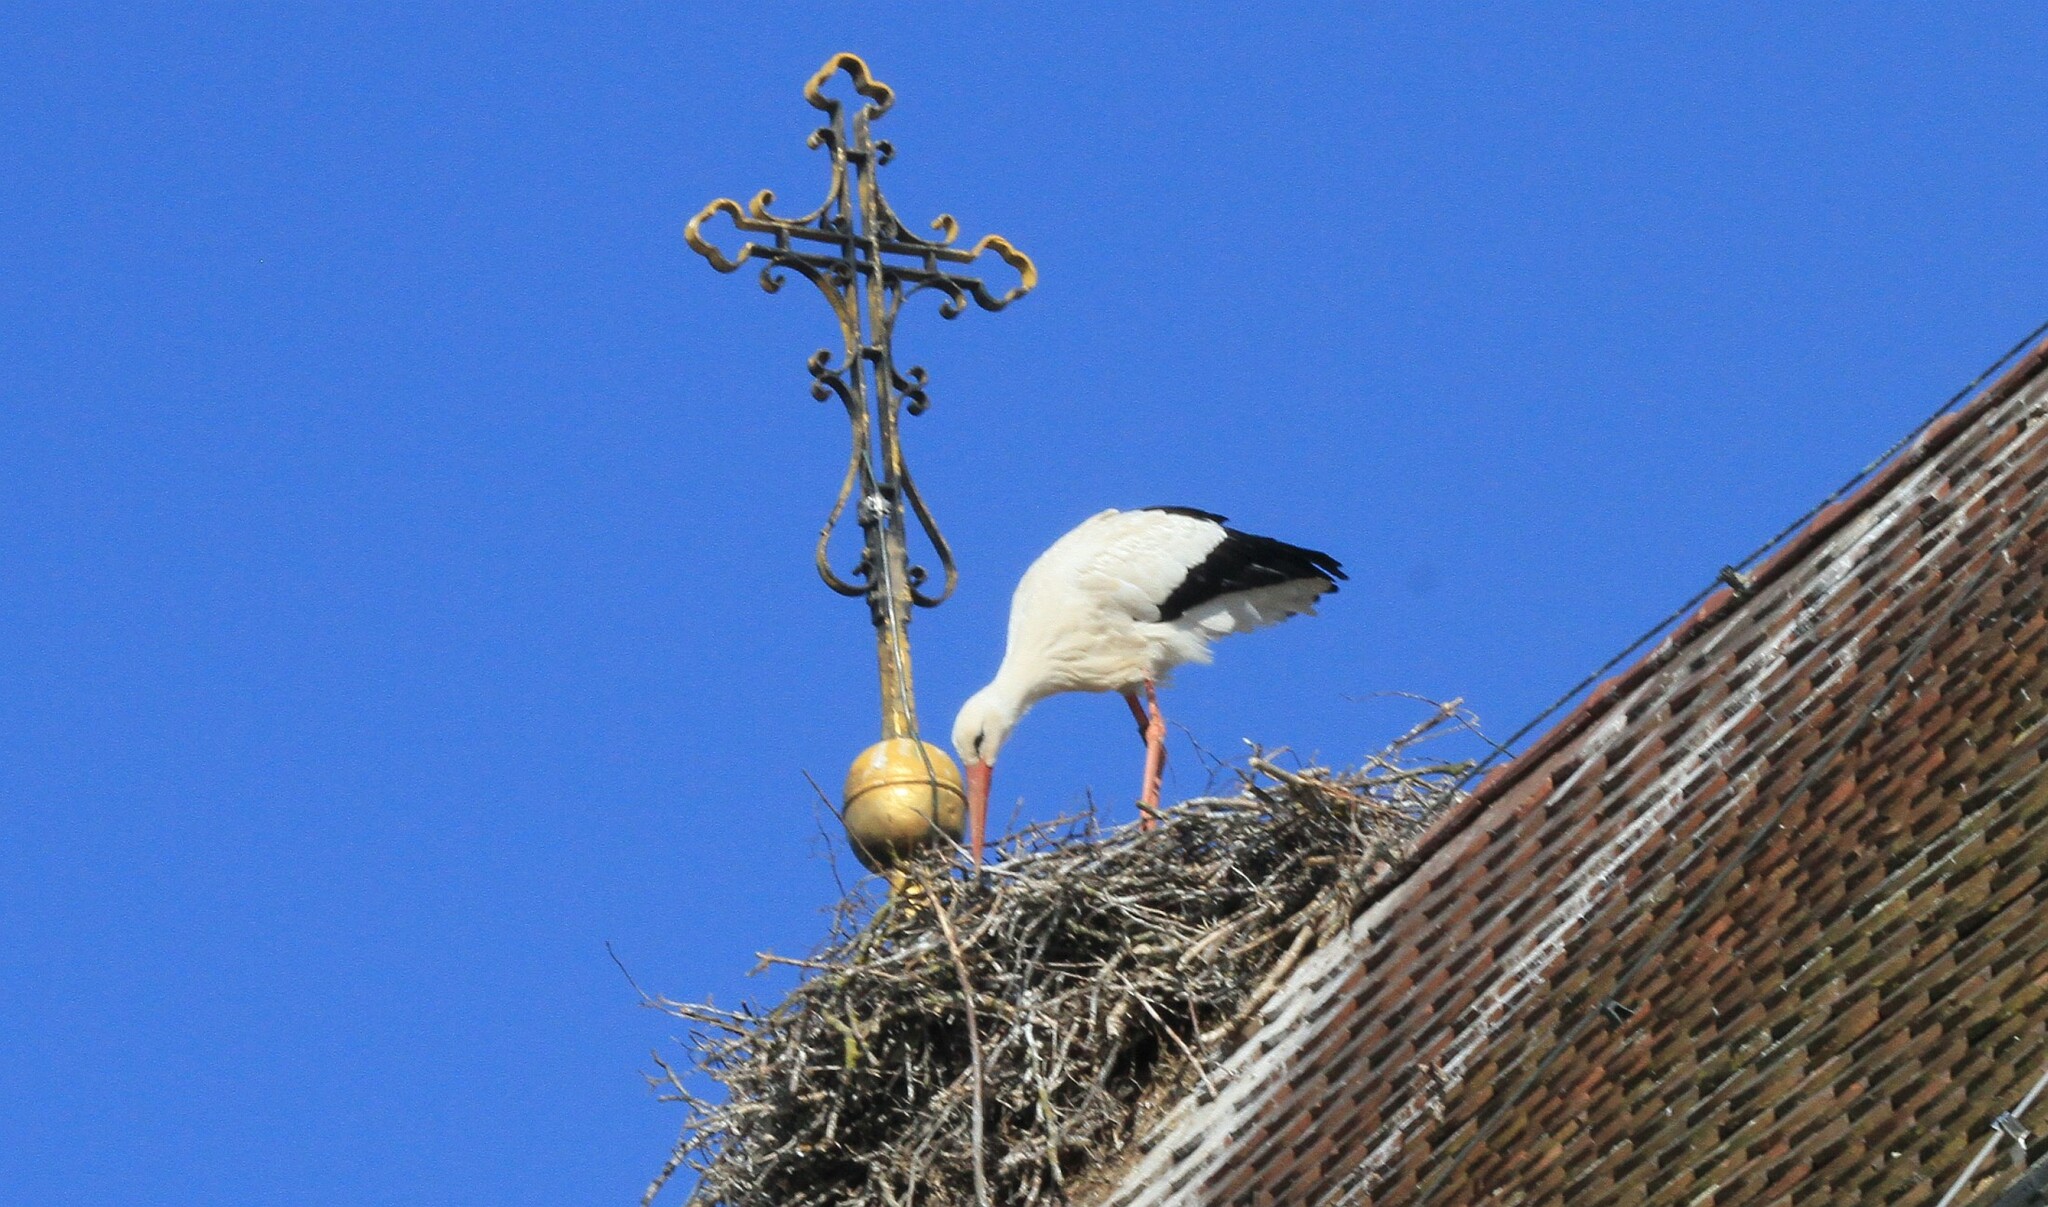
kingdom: Animalia
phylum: Chordata
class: Aves
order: Ciconiiformes
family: Ciconiidae
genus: Ciconia
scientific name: Ciconia ciconia
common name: White stork
